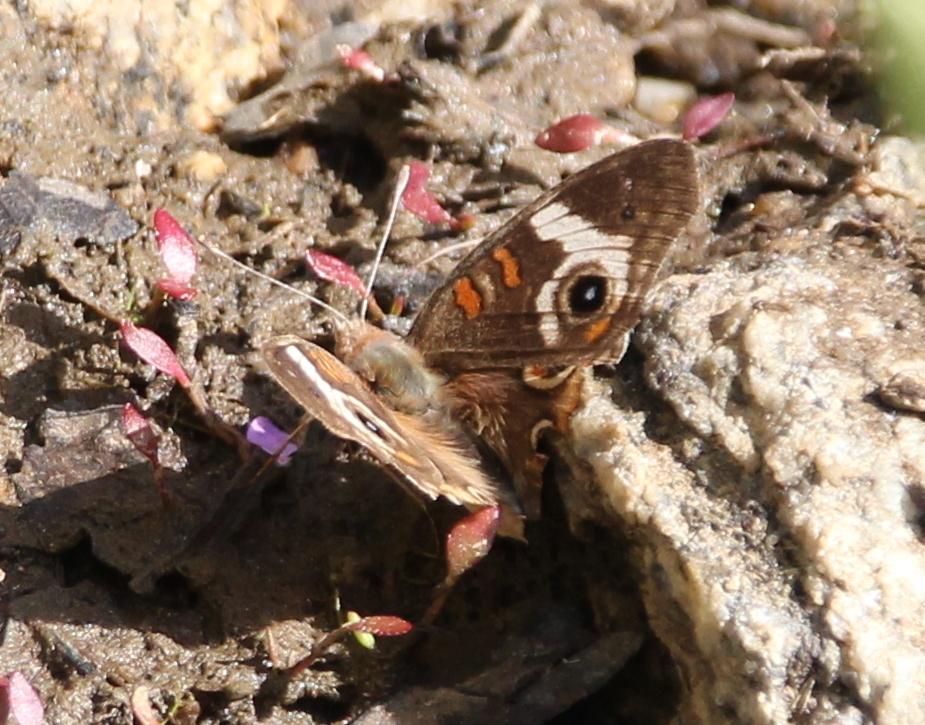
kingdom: Animalia
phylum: Arthropoda
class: Insecta
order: Lepidoptera
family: Nymphalidae
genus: Junonia
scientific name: Junonia grisea
